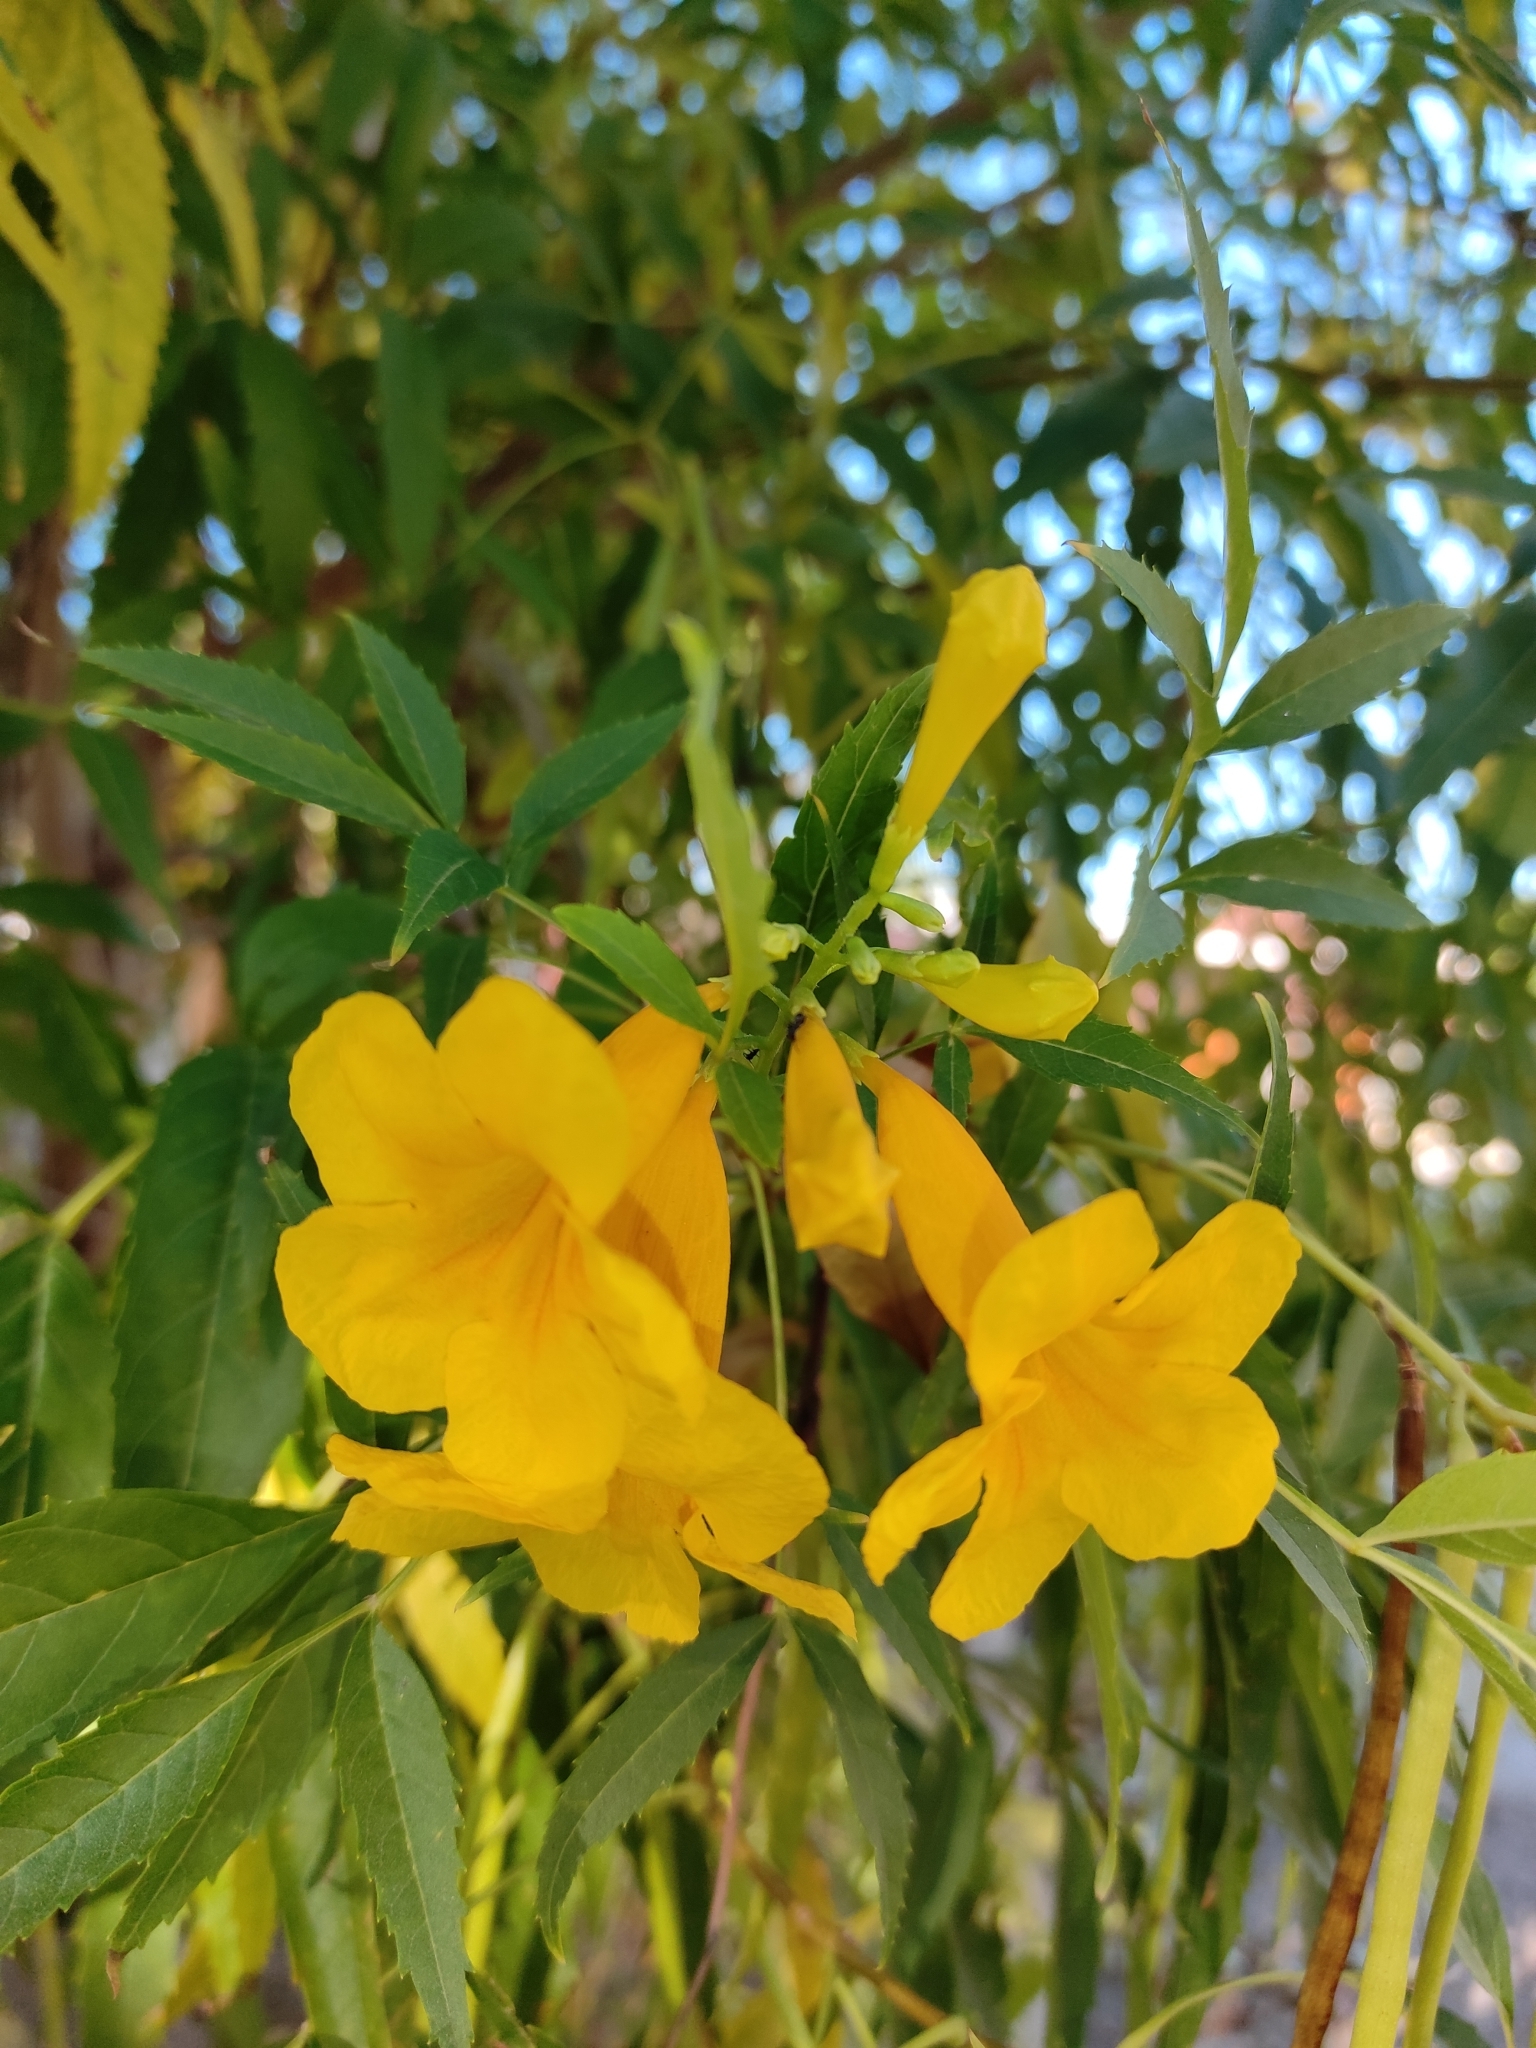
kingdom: Plantae
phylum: Tracheophyta
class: Magnoliopsida
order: Lamiales
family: Bignoniaceae
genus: Tecoma
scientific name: Tecoma stans
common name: Yellow trumpetbush
